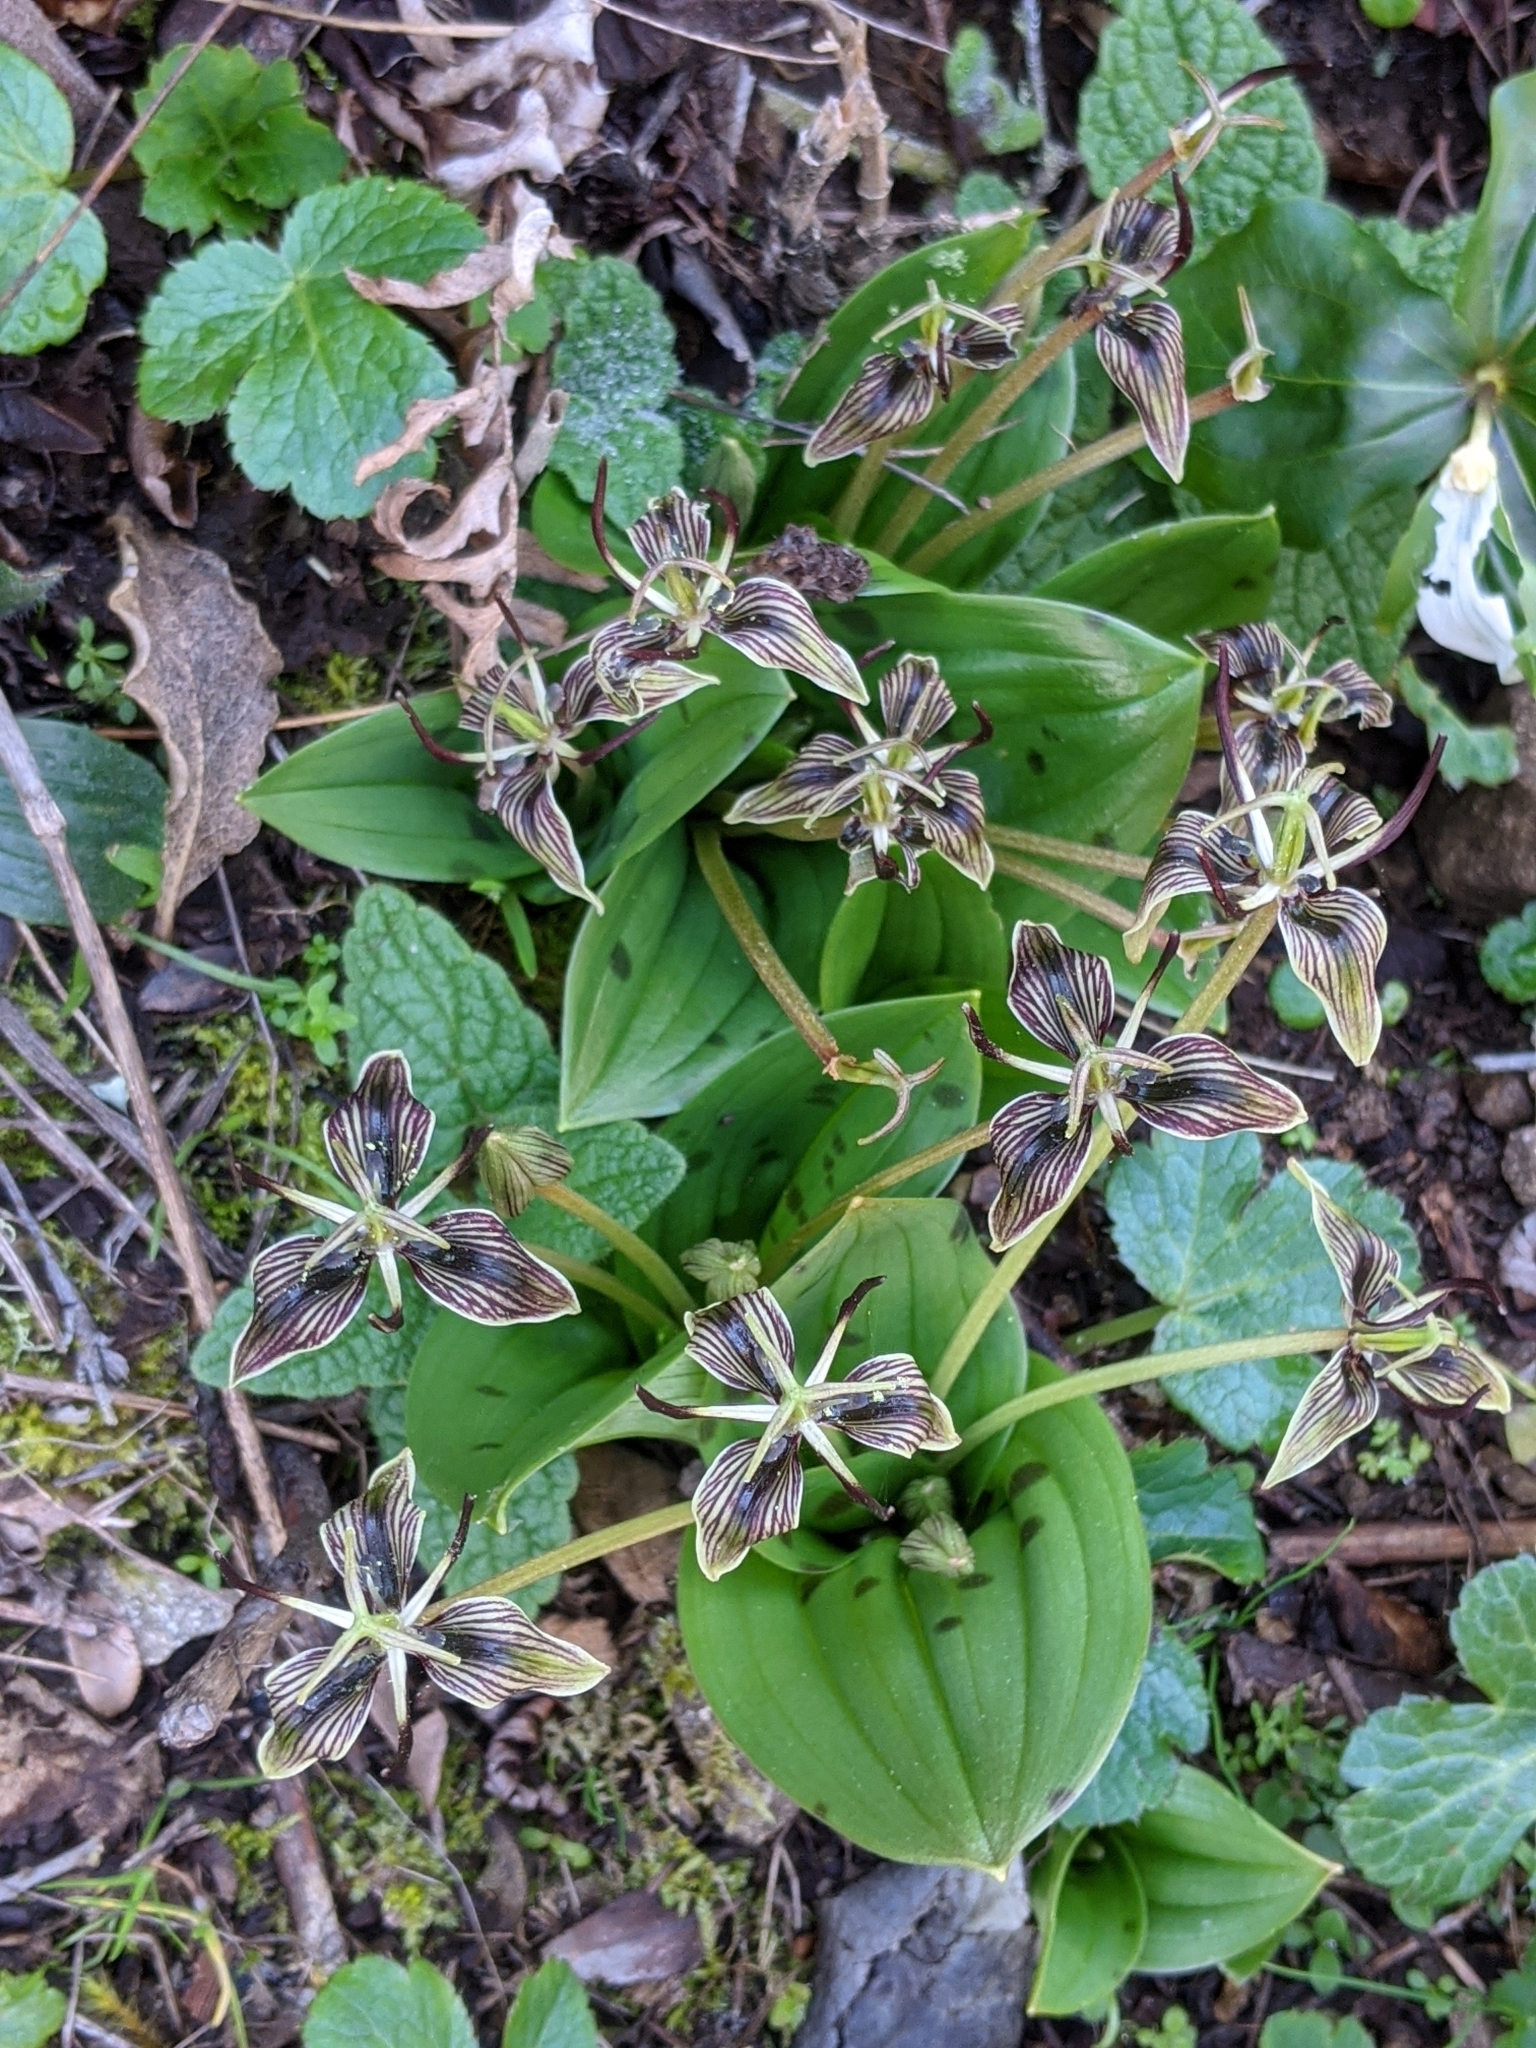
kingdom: Plantae
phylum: Tracheophyta
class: Liliopsida
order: Liliales
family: Liliaceae
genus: Scoliopus
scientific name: Scoliopus bigelovii
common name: Foetid adder's-tongue
